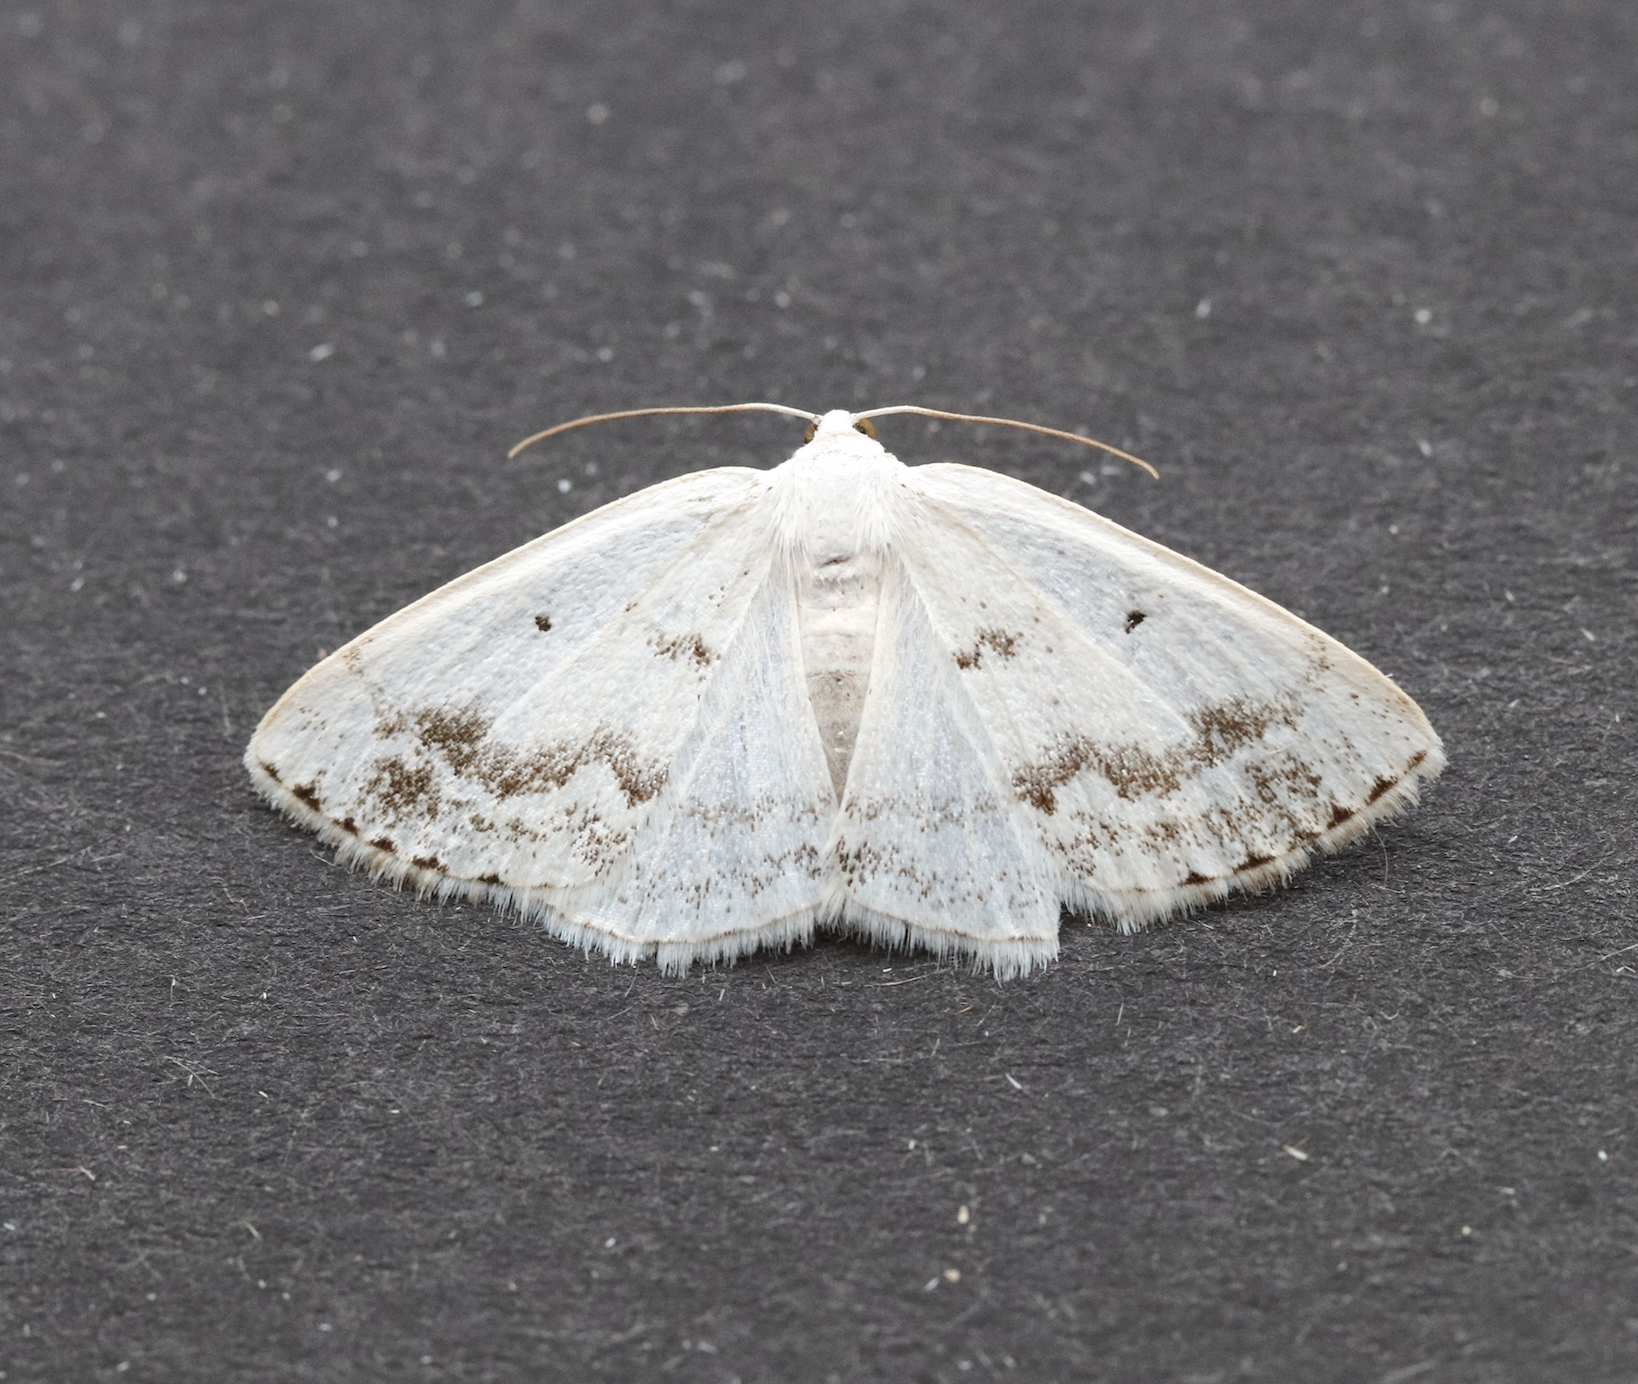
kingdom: Animalia
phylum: Arthropoda
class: Insecta
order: Lepidoptera
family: Geometridae
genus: Lomographa
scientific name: Lomographa temerata
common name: Clouded silver
